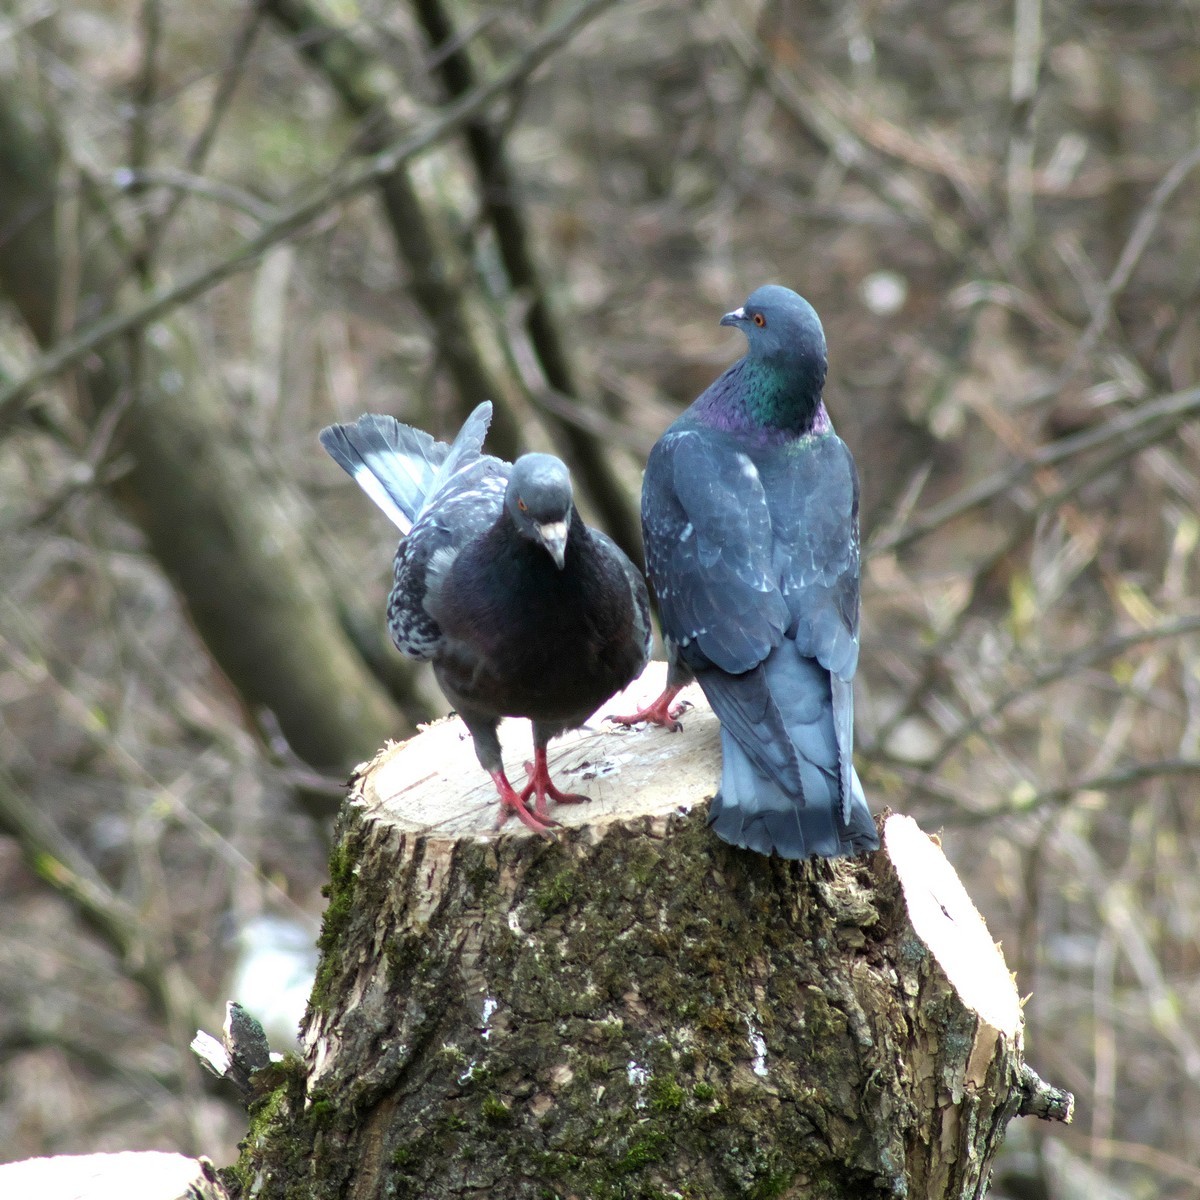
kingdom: Animalia
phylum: Chordata
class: Aves
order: Columbiformes
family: Columbidae
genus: Columba
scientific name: Columba livia
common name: Rock pigeon
